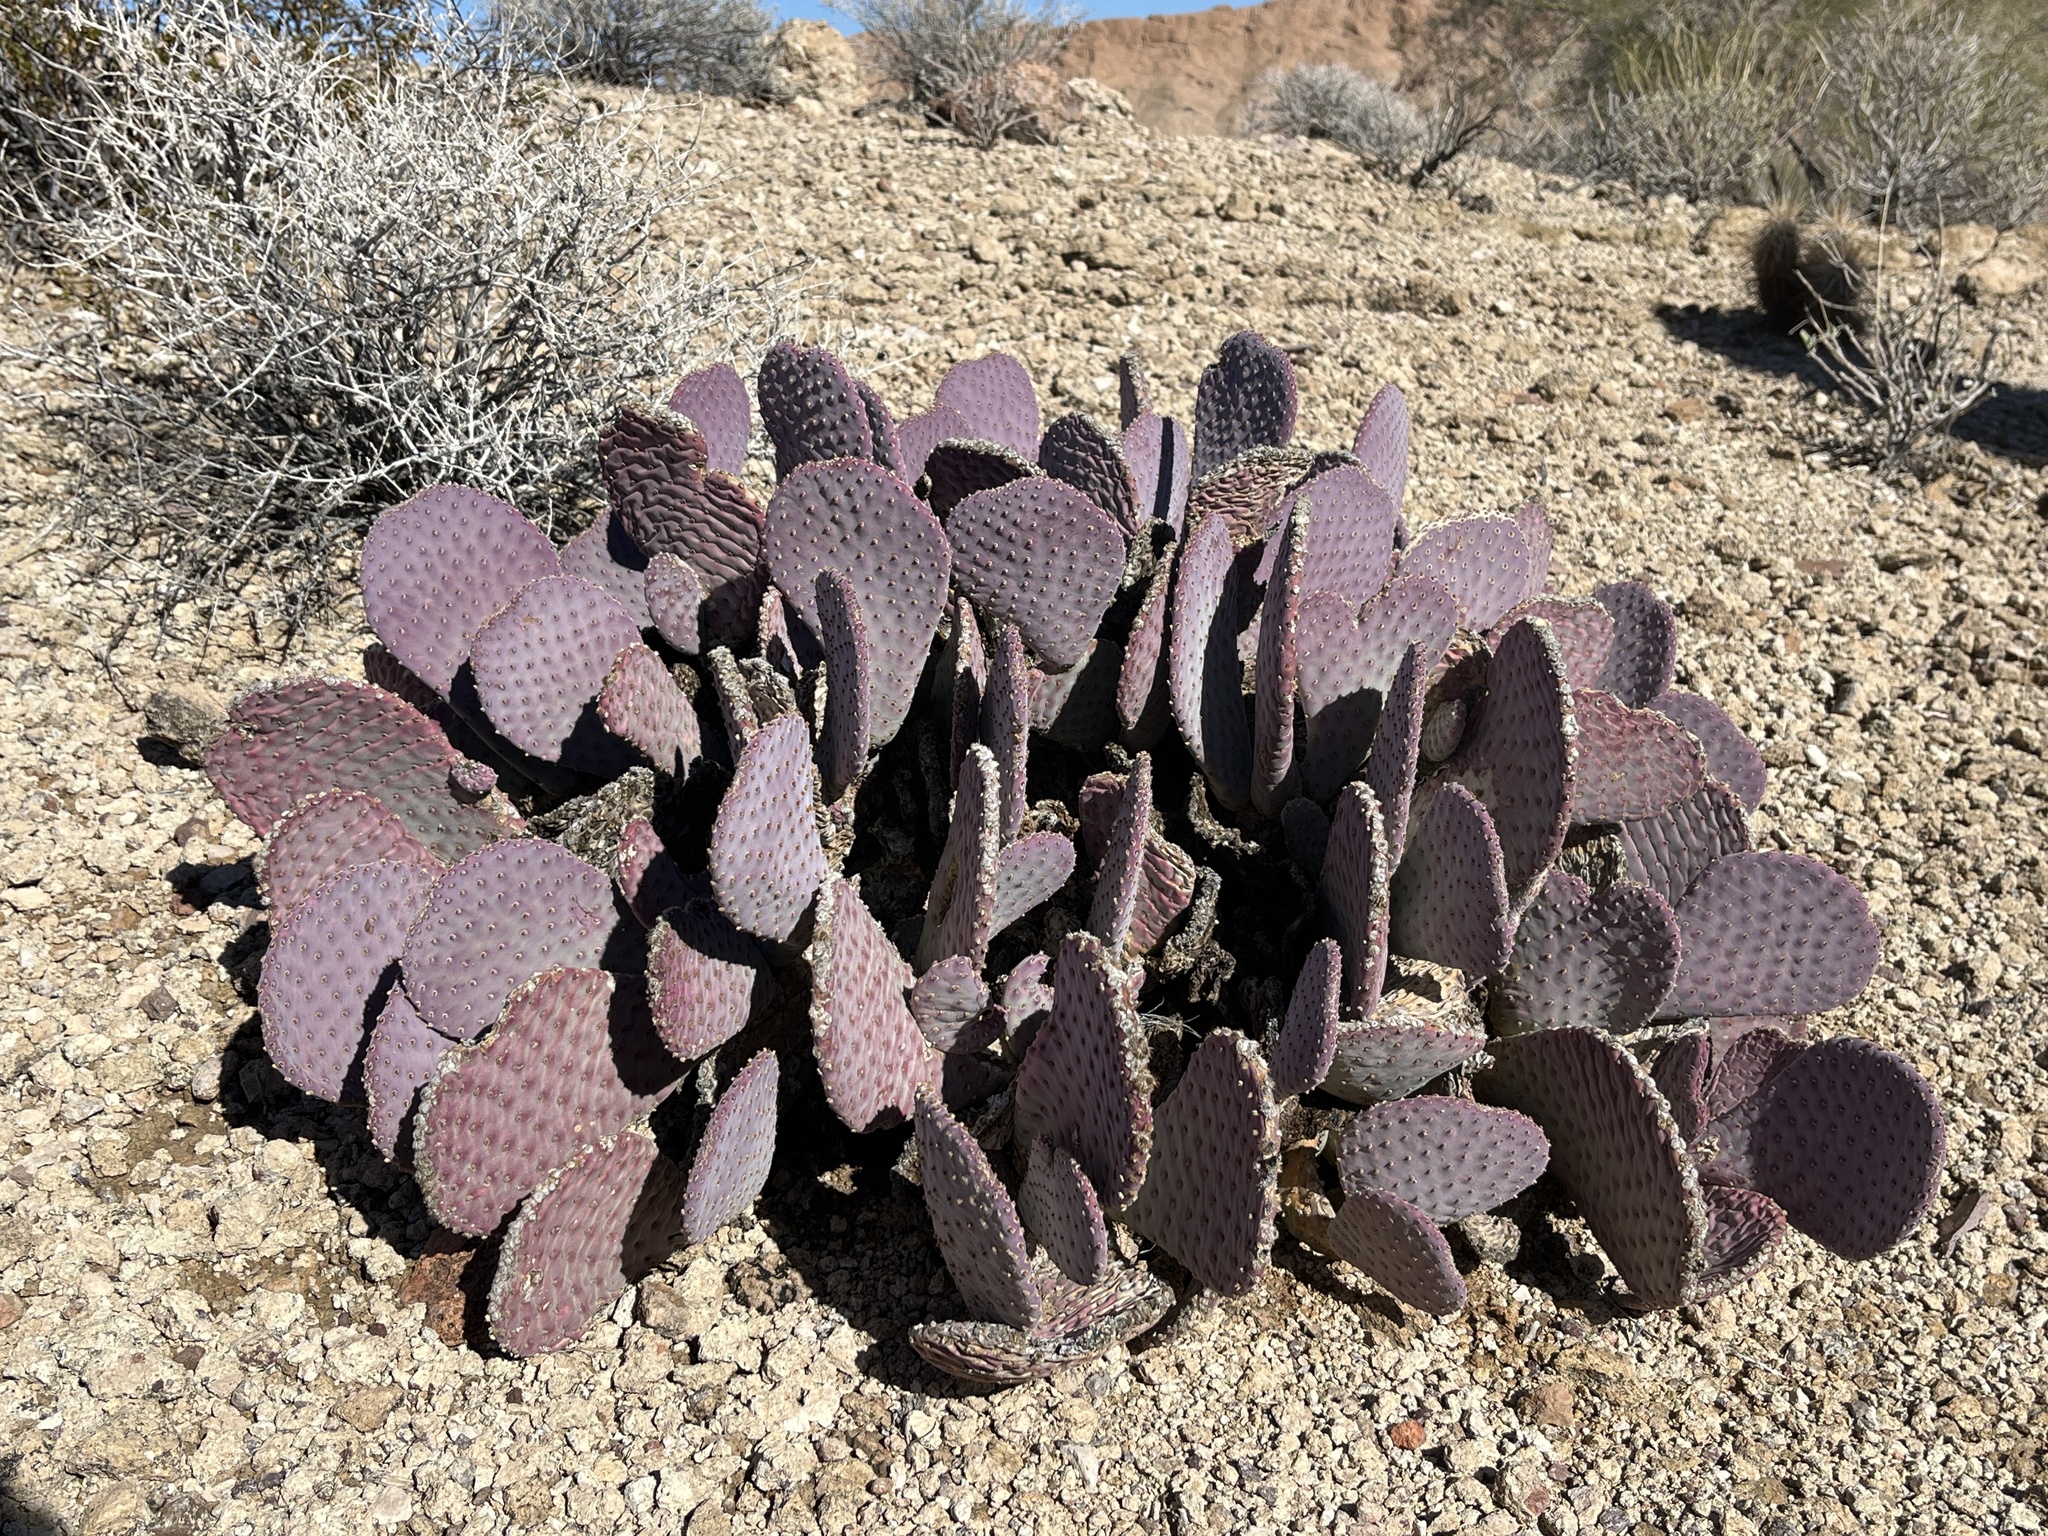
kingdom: Plantae
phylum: Tracheophyta
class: Magnoliopsida
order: Caryophyllales
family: Cactaceae
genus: Opuntia
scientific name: Opuntia basilaris
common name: Beavertail prickly-pear
